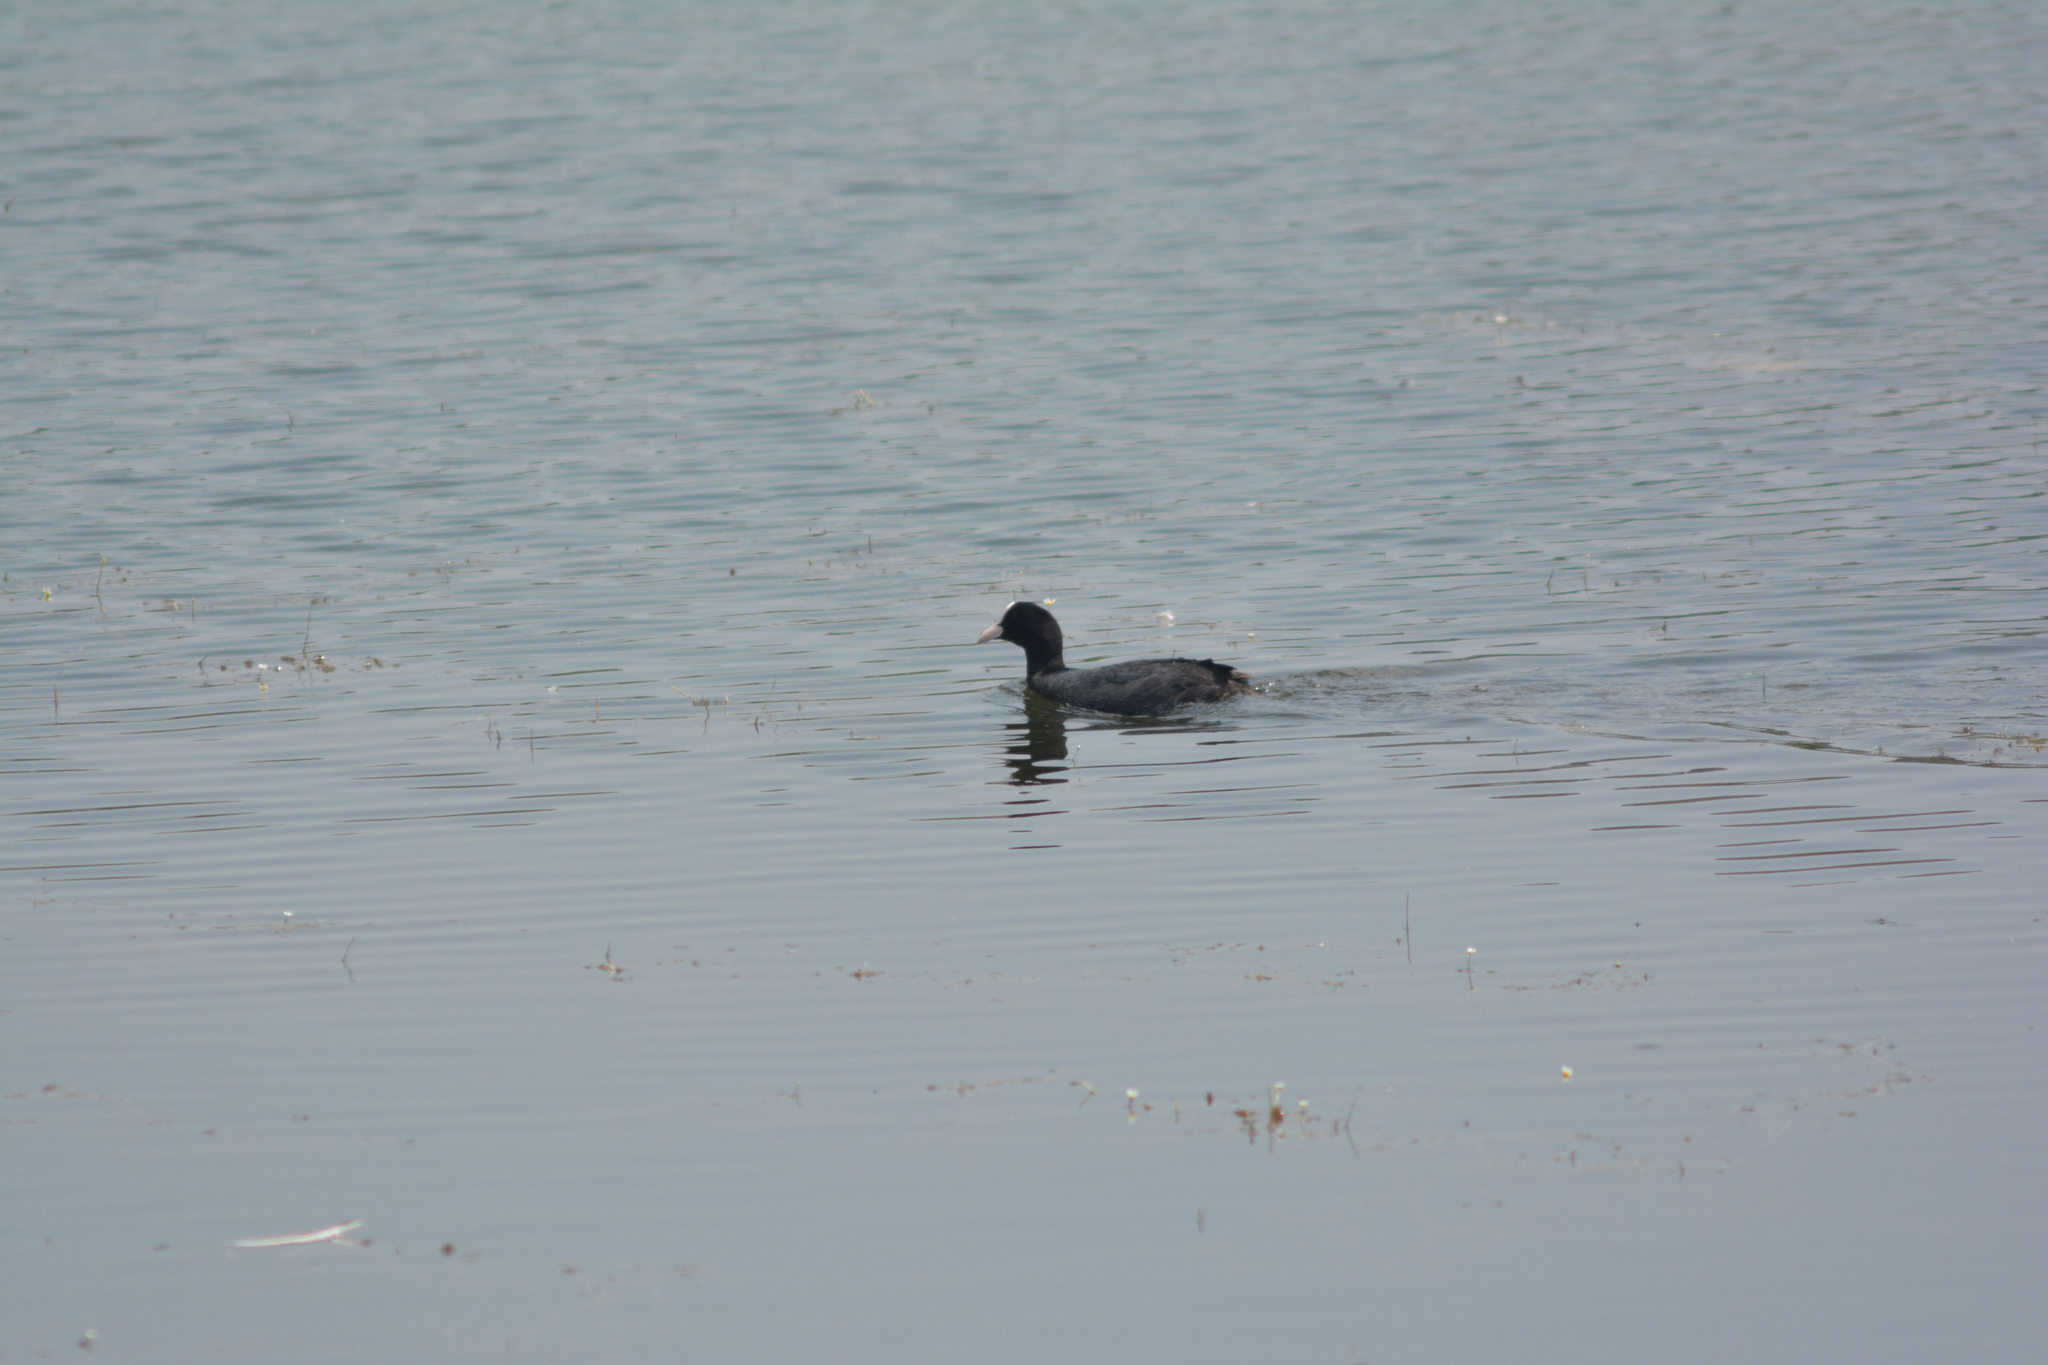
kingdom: Animalia
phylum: Chordata
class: Aves
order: Gruiformes
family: Rallidae
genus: Fulica
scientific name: Fulica atra
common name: Eurasian coot
